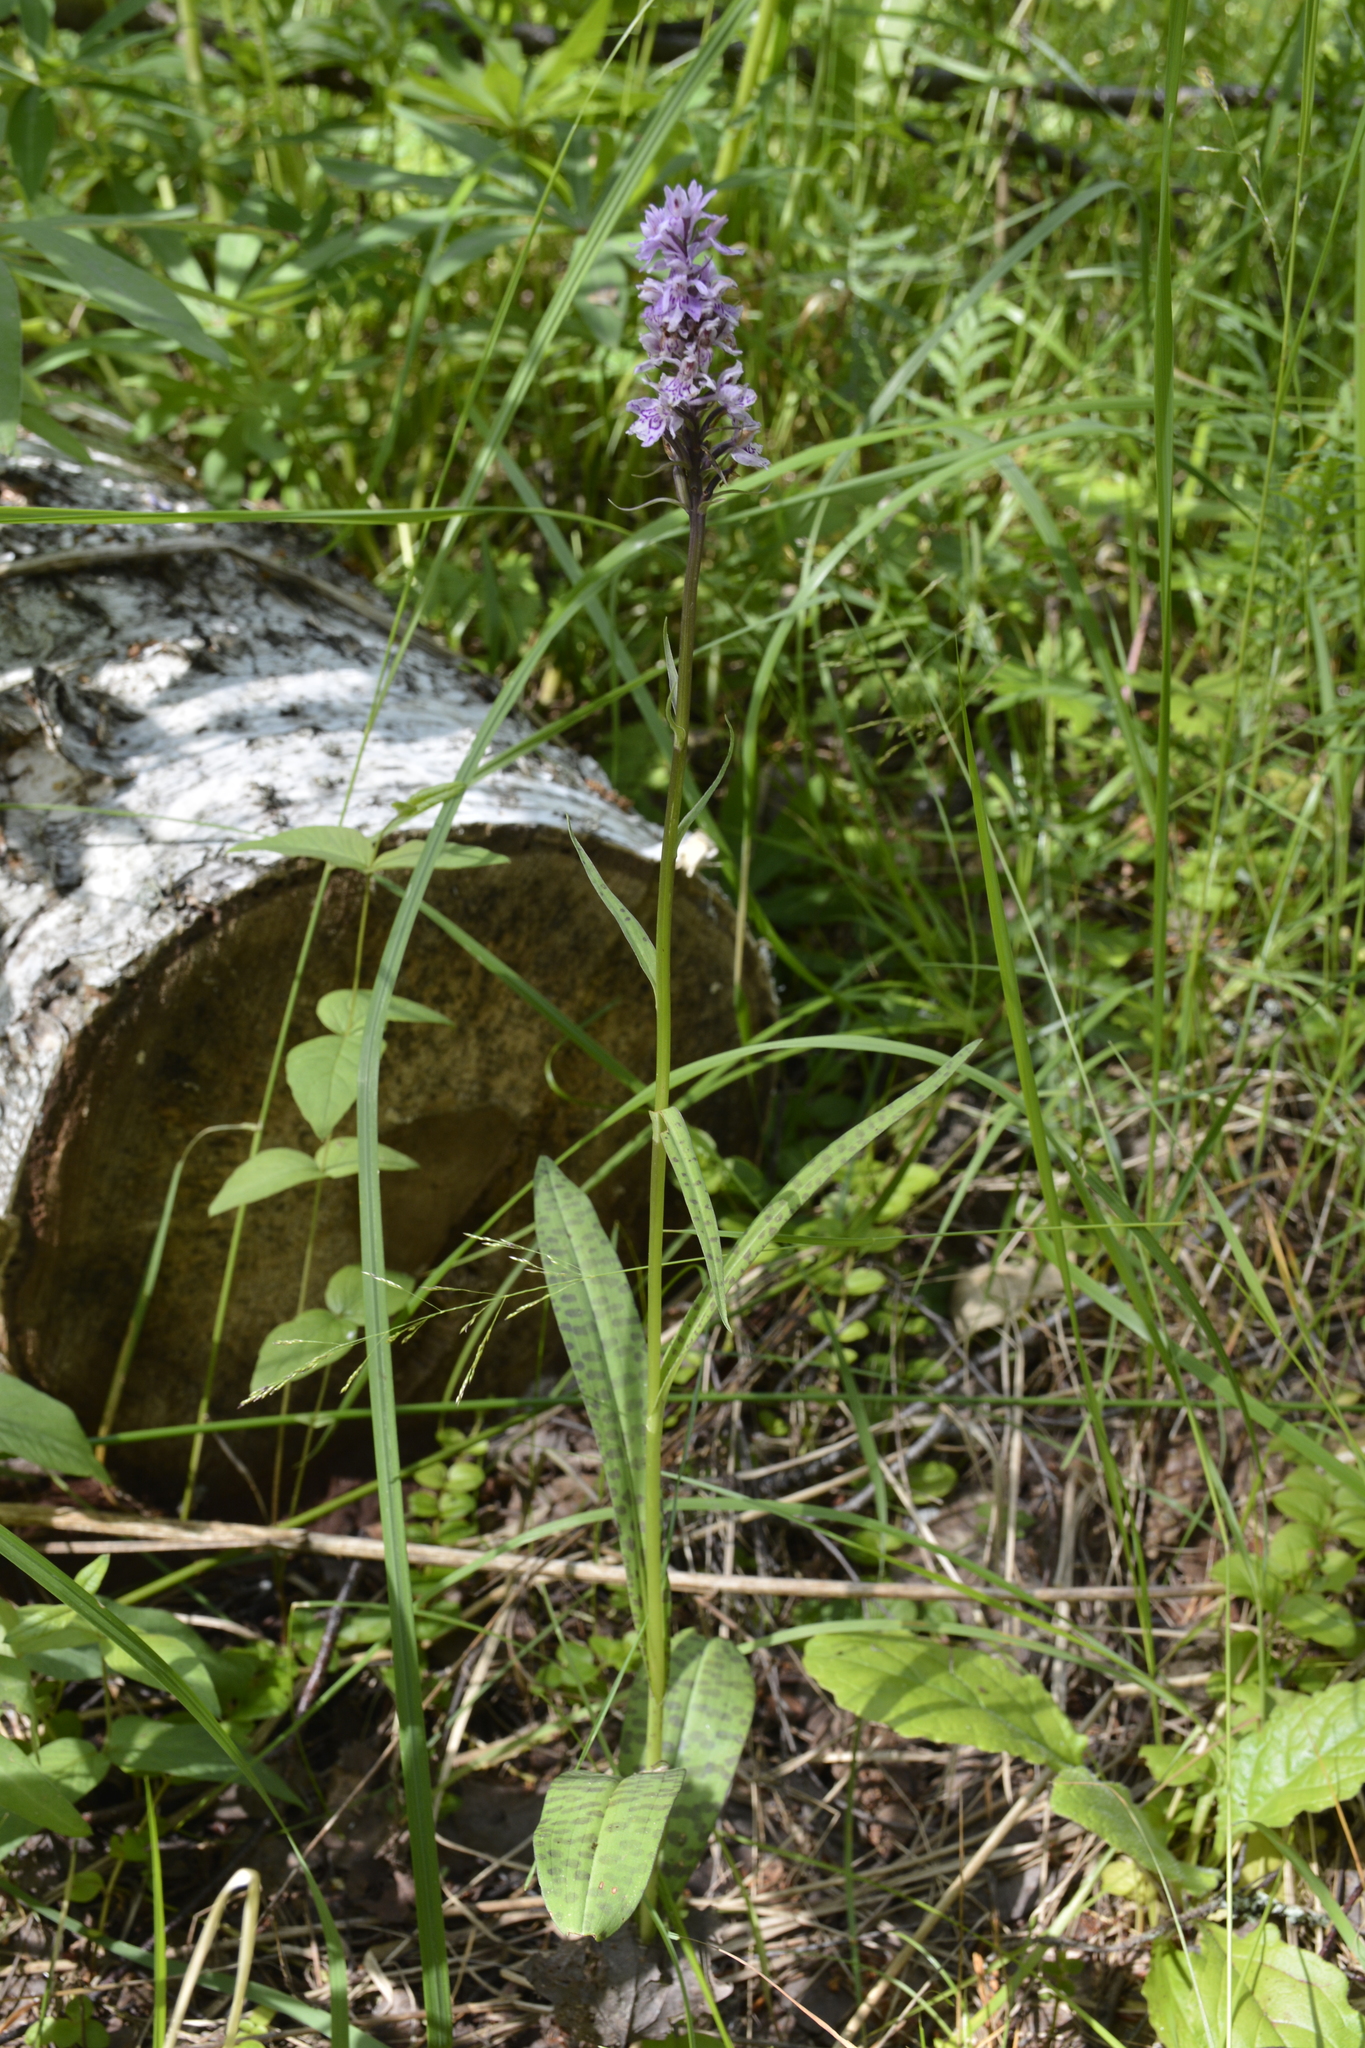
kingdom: Plantae
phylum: Tracheophyta
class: Liliopsida
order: Asparagales
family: Orchidaceae
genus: Dactylorhiza
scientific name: Dactylorhiza maculata
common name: Heath spotted-orchid
